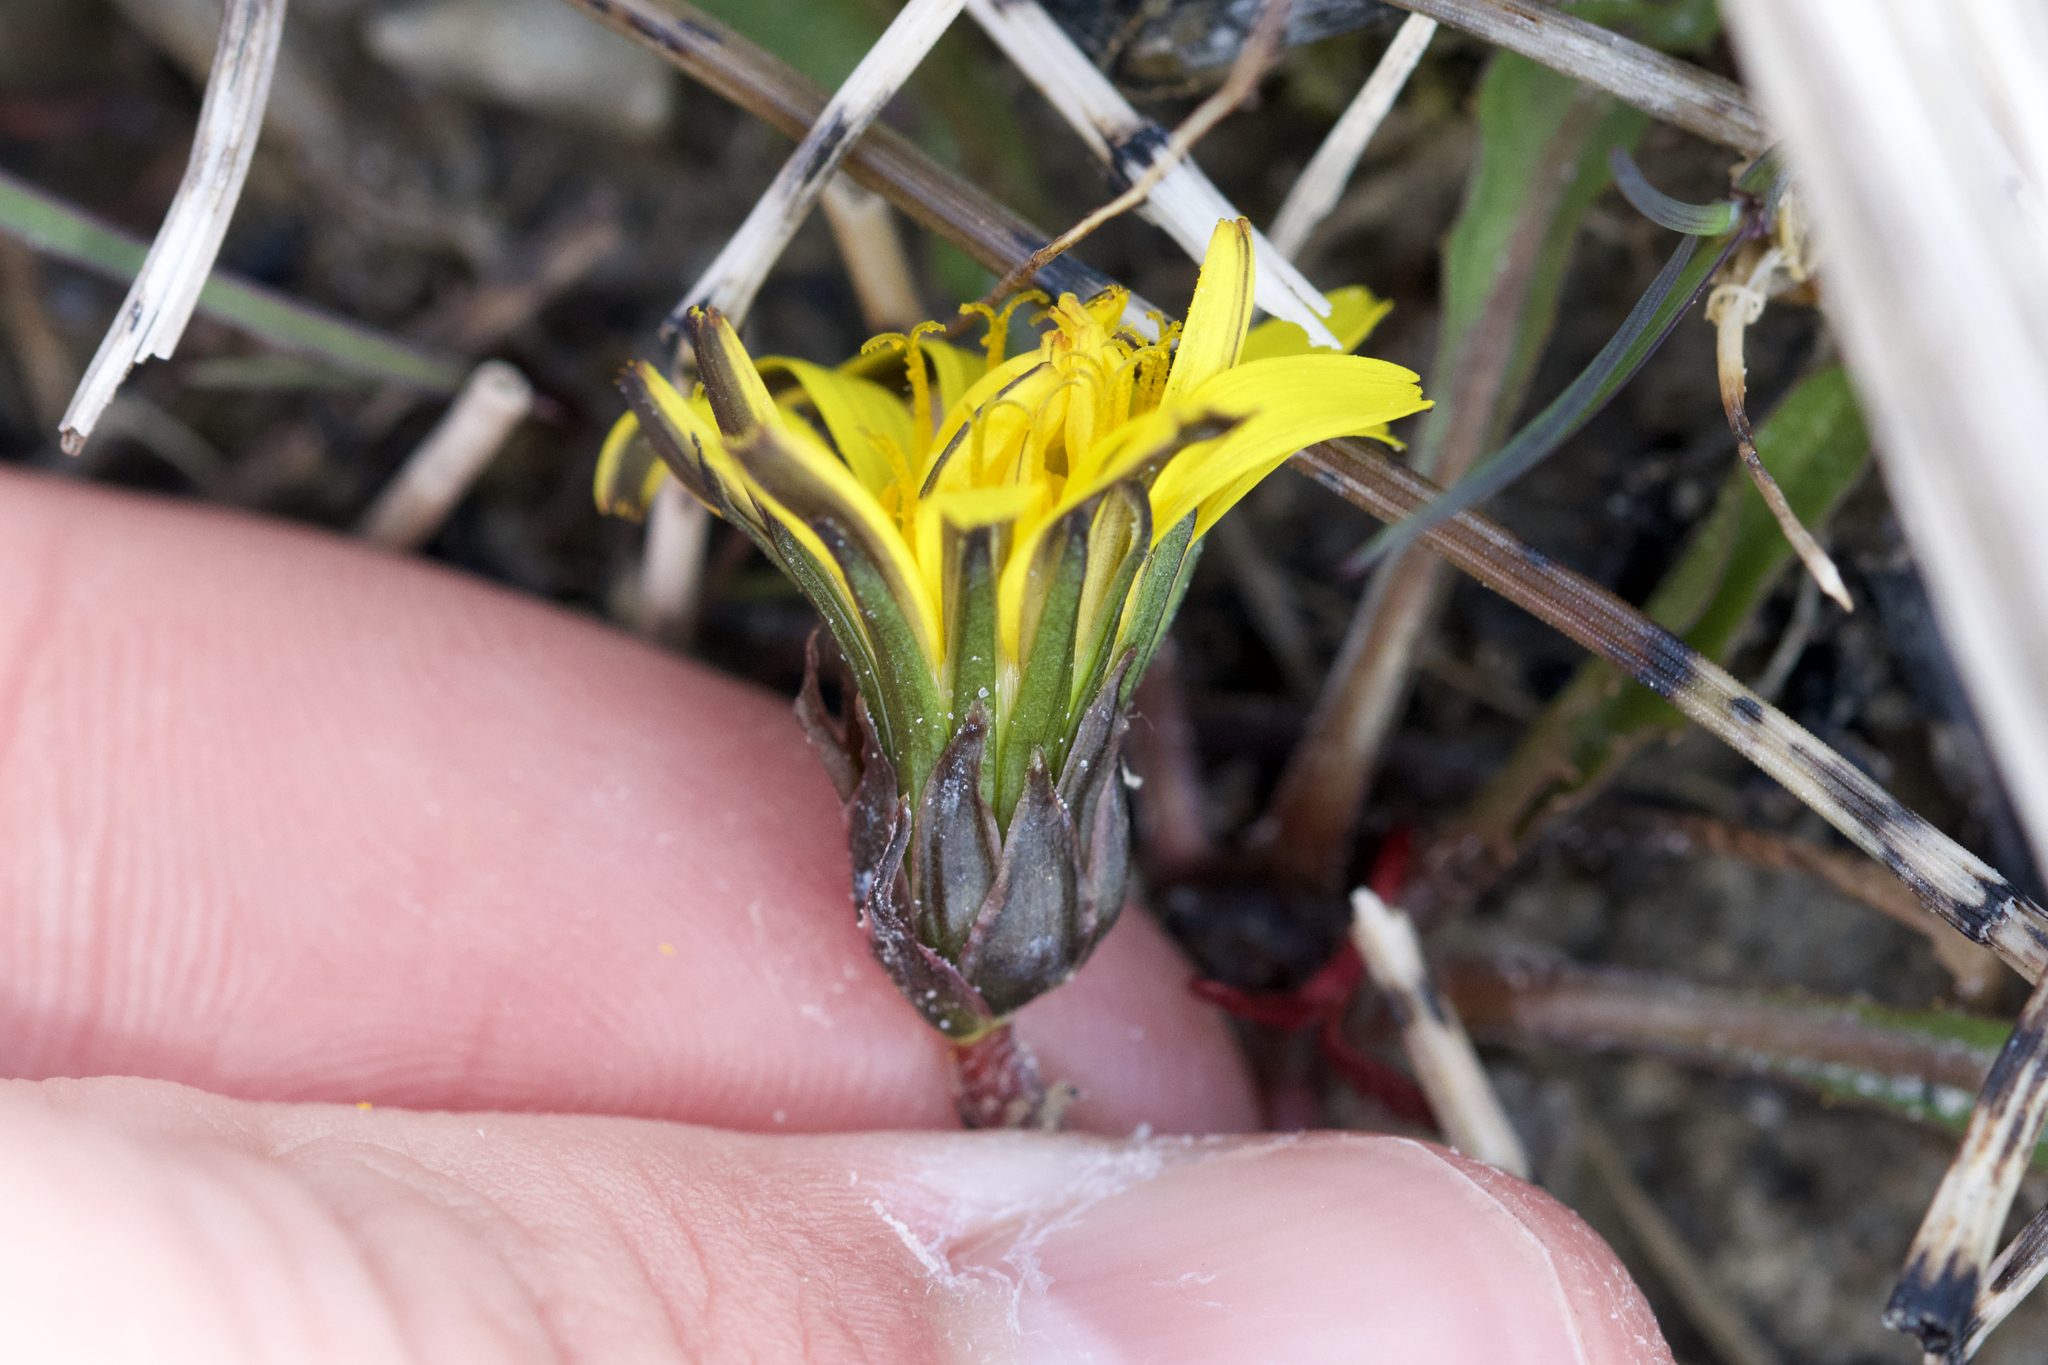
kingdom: Plantae
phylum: Tracheophyta
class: Magnoliopsida
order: Asterales
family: Asteraceae
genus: Taraxacum
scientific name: Taraxacum palustre
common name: Marsh dandelion
